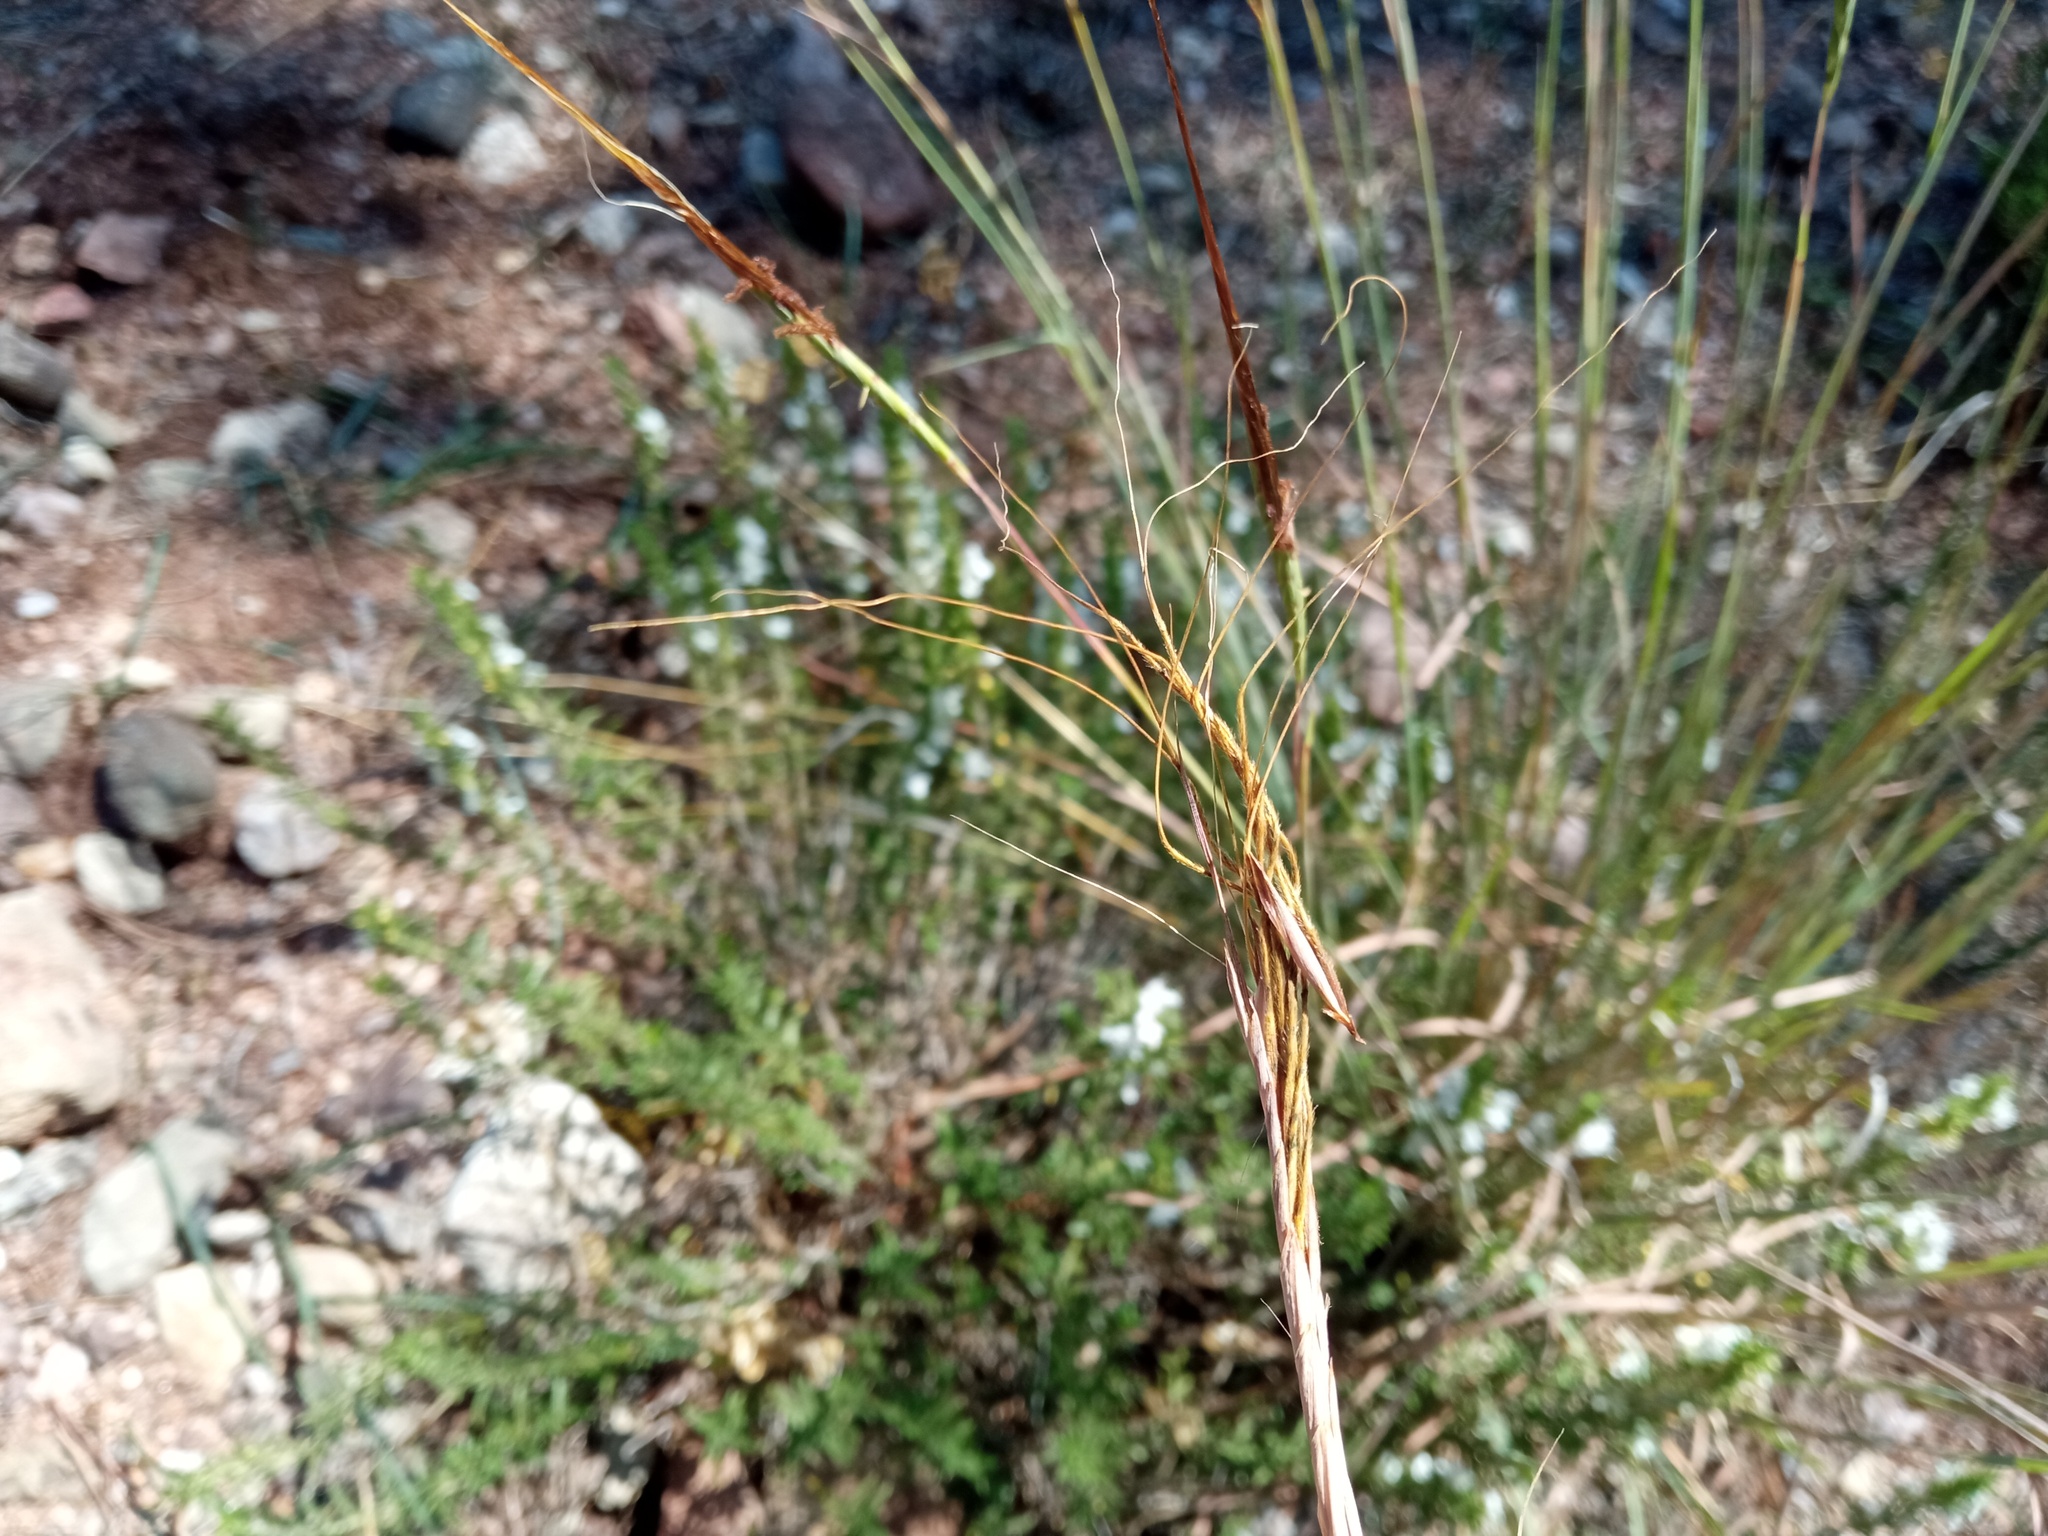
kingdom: Plantae
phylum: Tracheophyta
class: Liliopsida
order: Poales
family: Poaceae
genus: Heteropogon
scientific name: Heteropogon contortus
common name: Tanglehead
